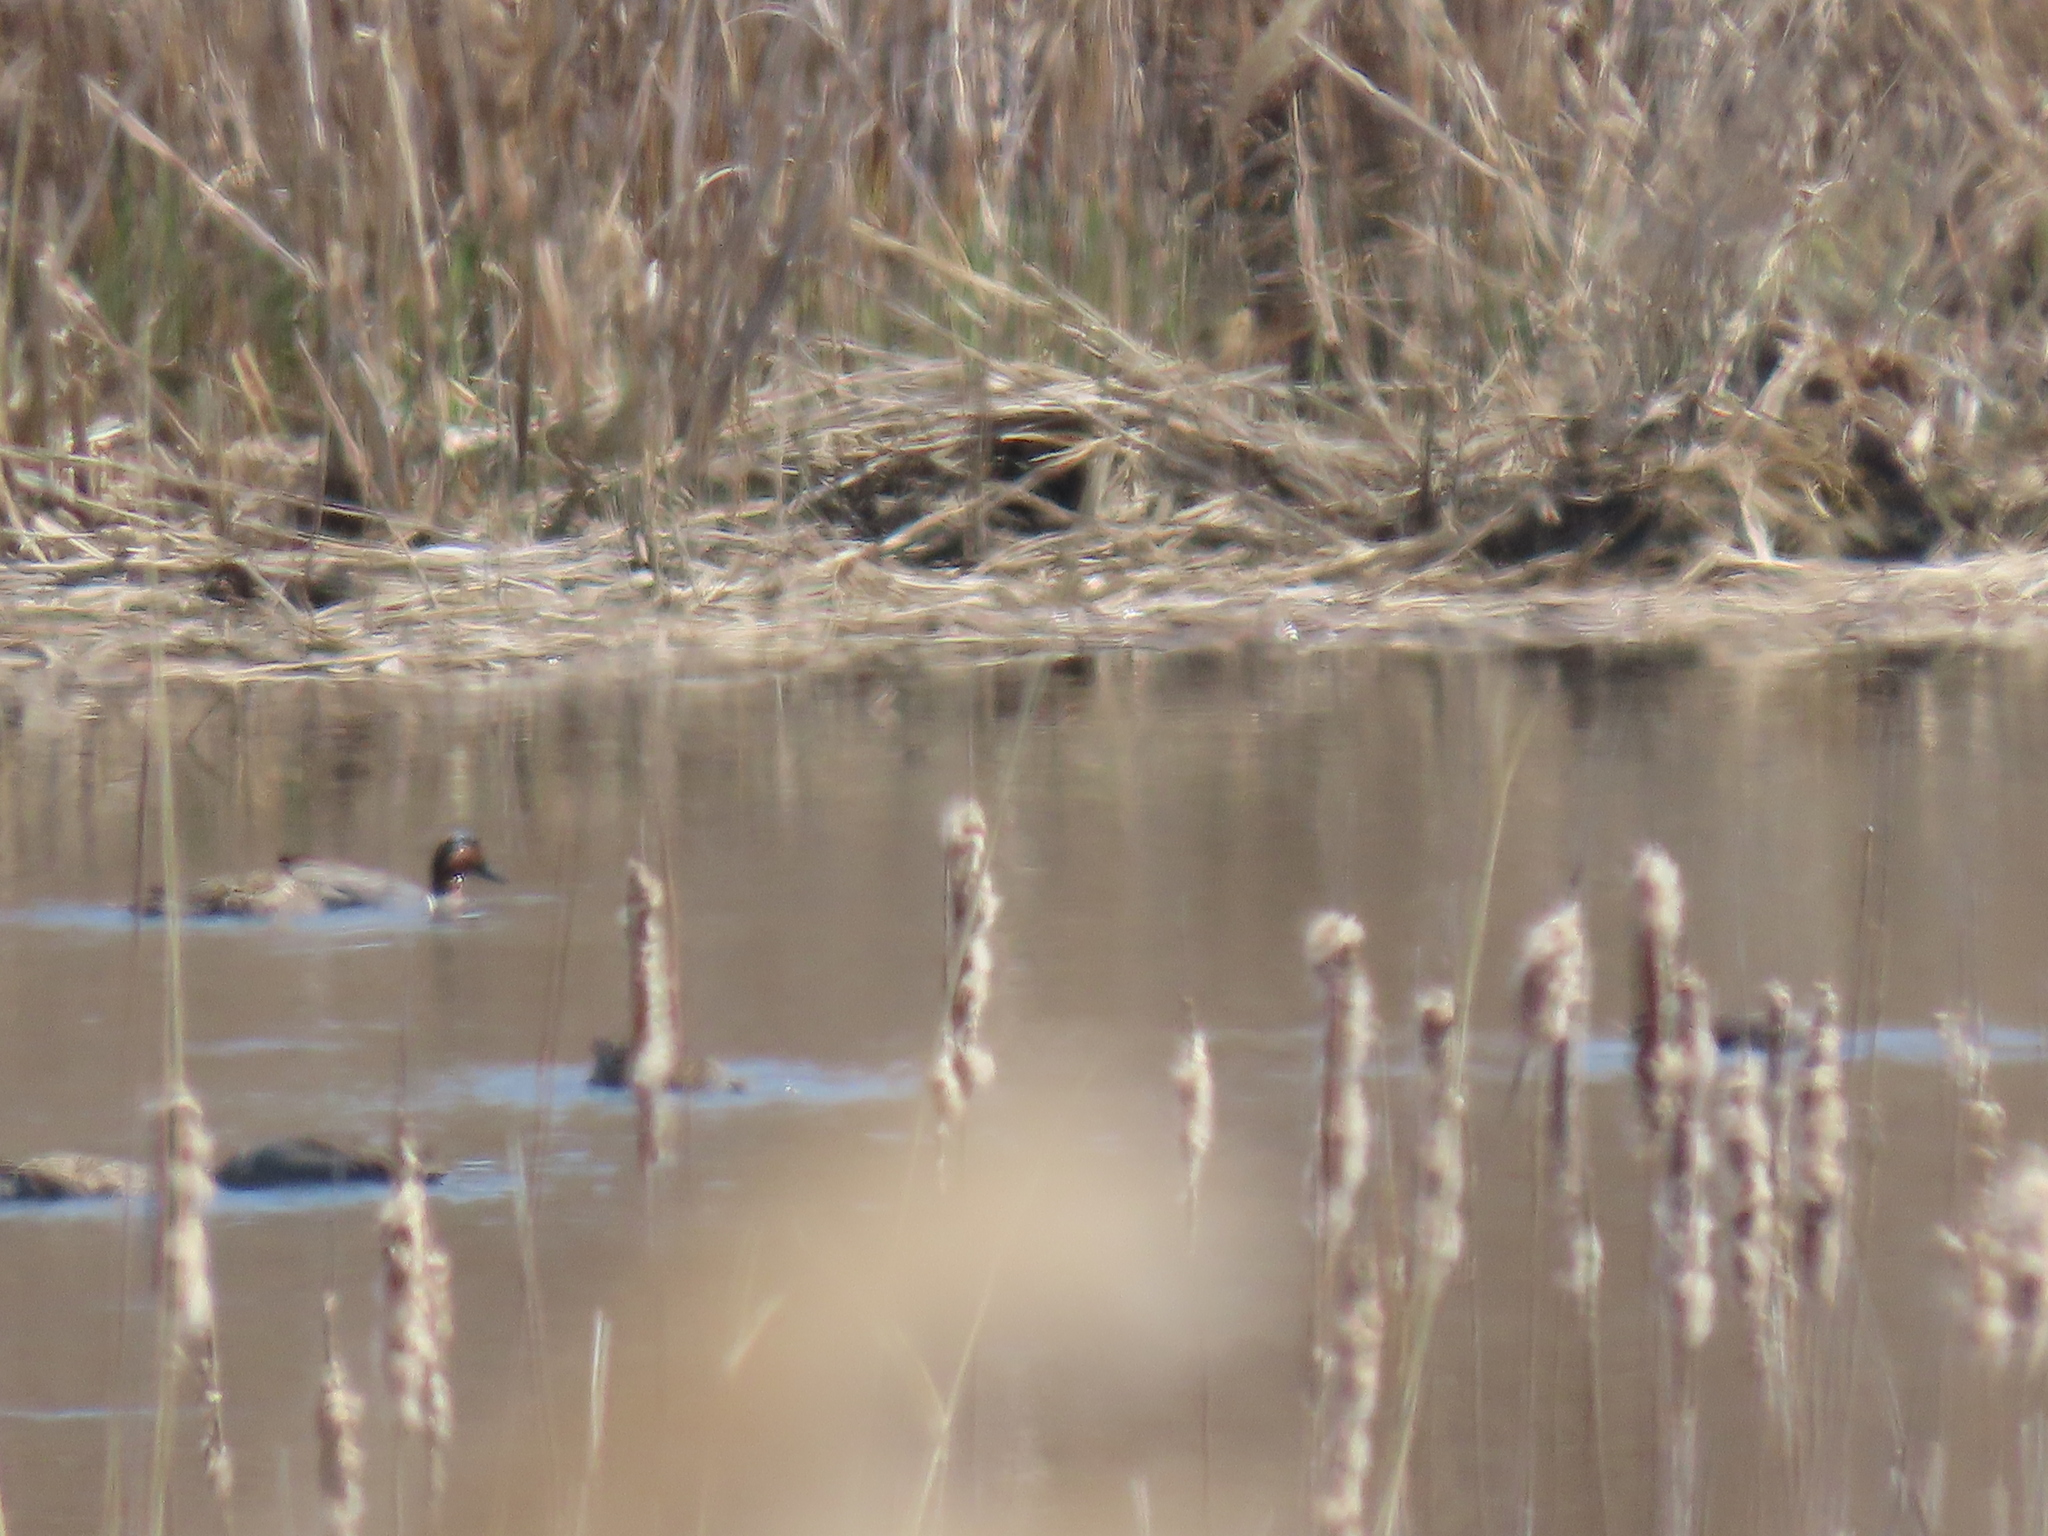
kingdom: Animalia
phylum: Chordata
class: Aves
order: Anseriformes
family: Anatidae
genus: Anas
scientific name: Anas crecca
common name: Eurasian teal
